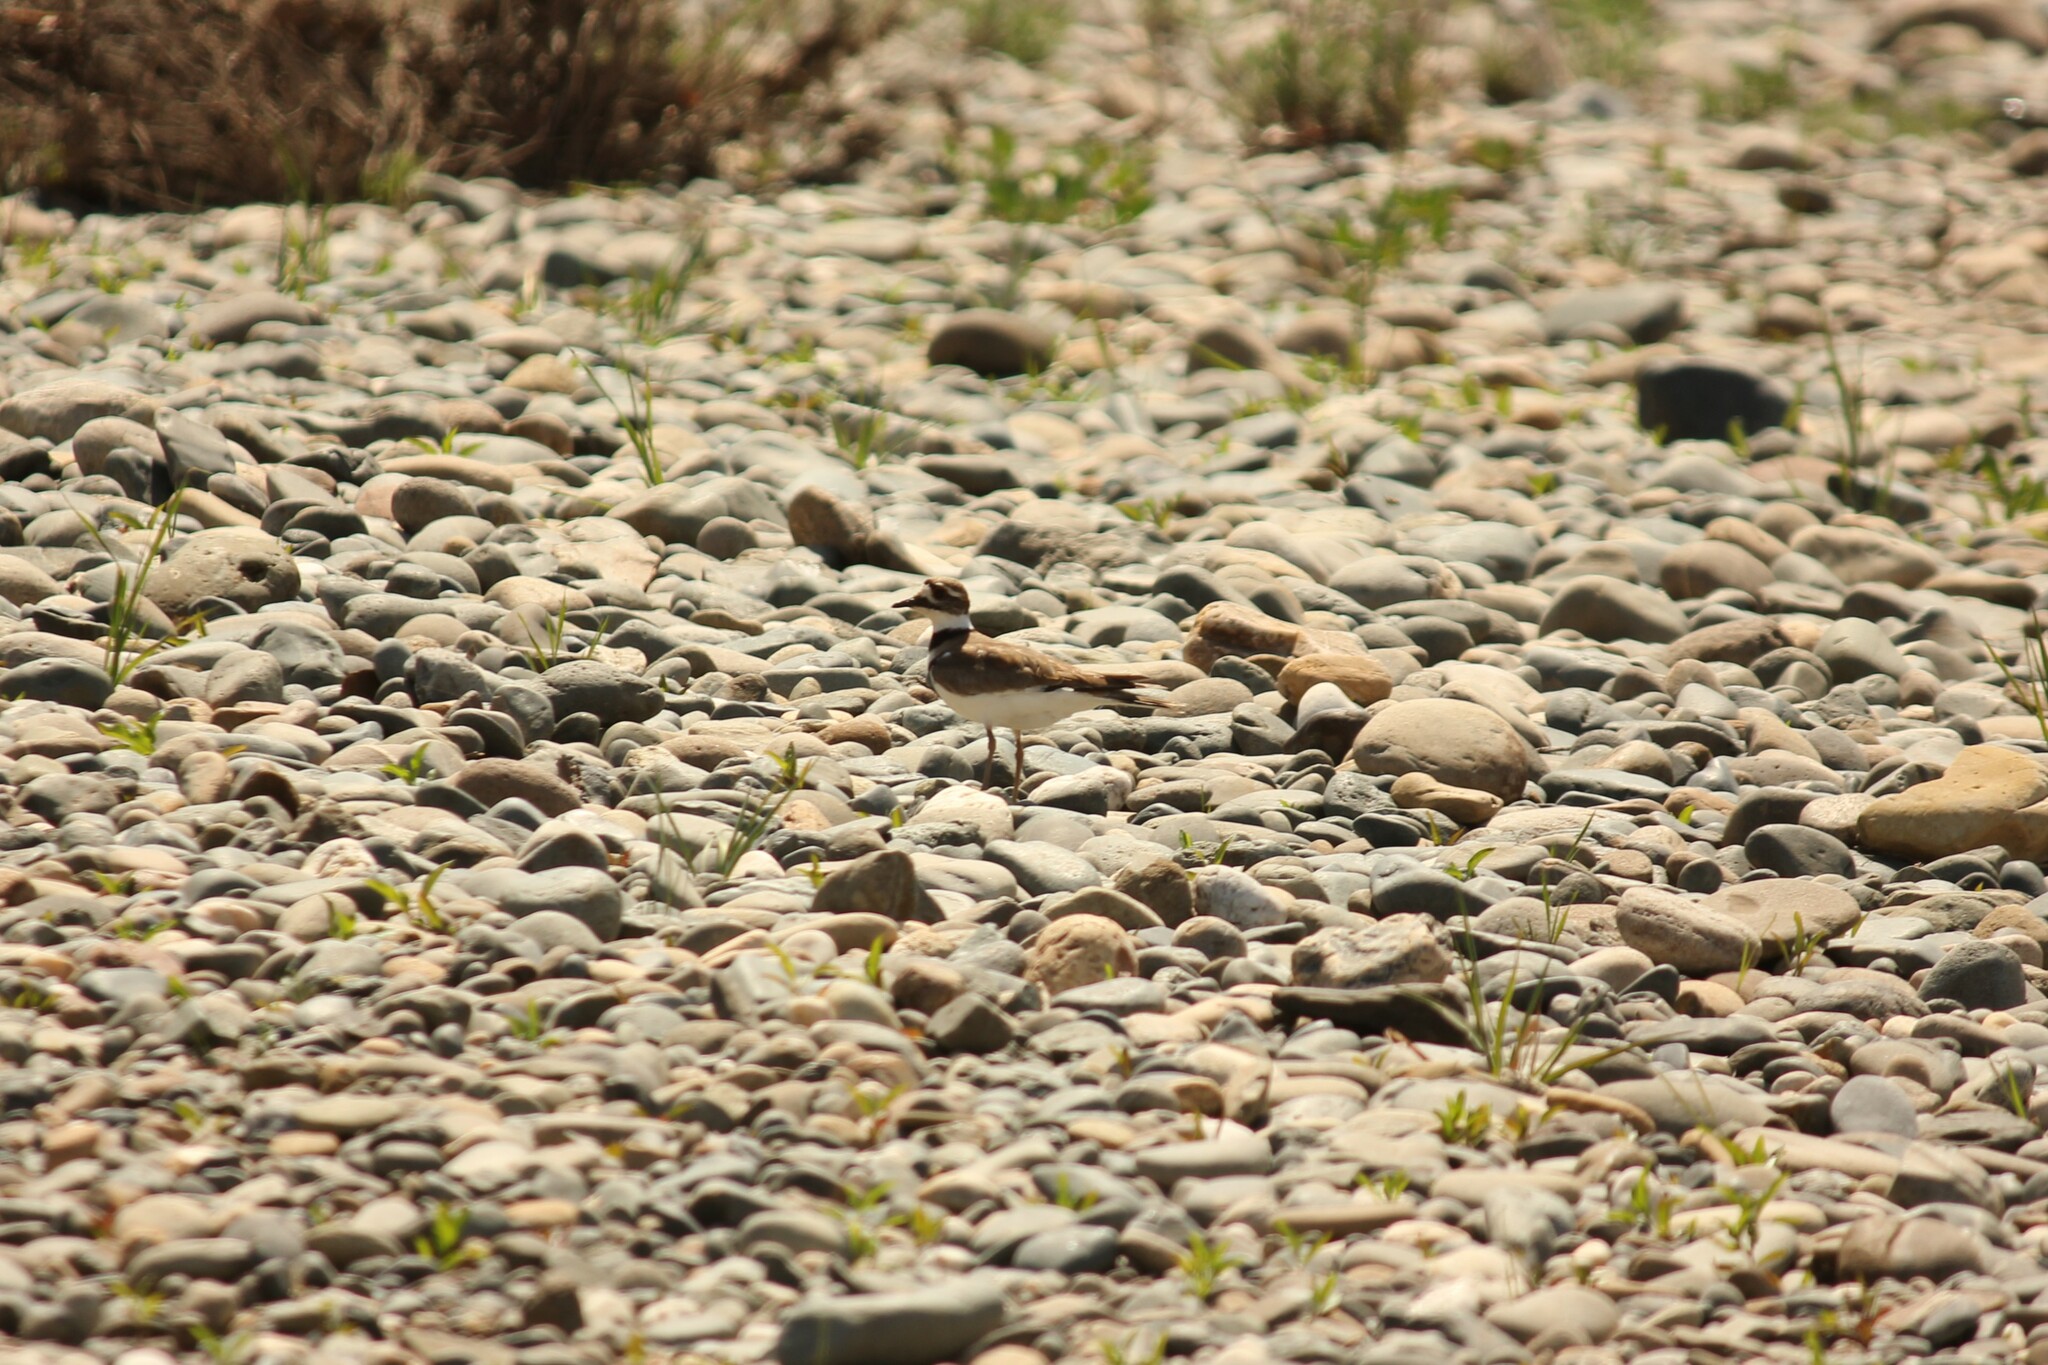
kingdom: Animalia
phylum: Chordata
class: Aves
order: Charadriiformes
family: Charadriidae
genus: Charadrius
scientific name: Charadrius vociferus
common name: Killdeer
